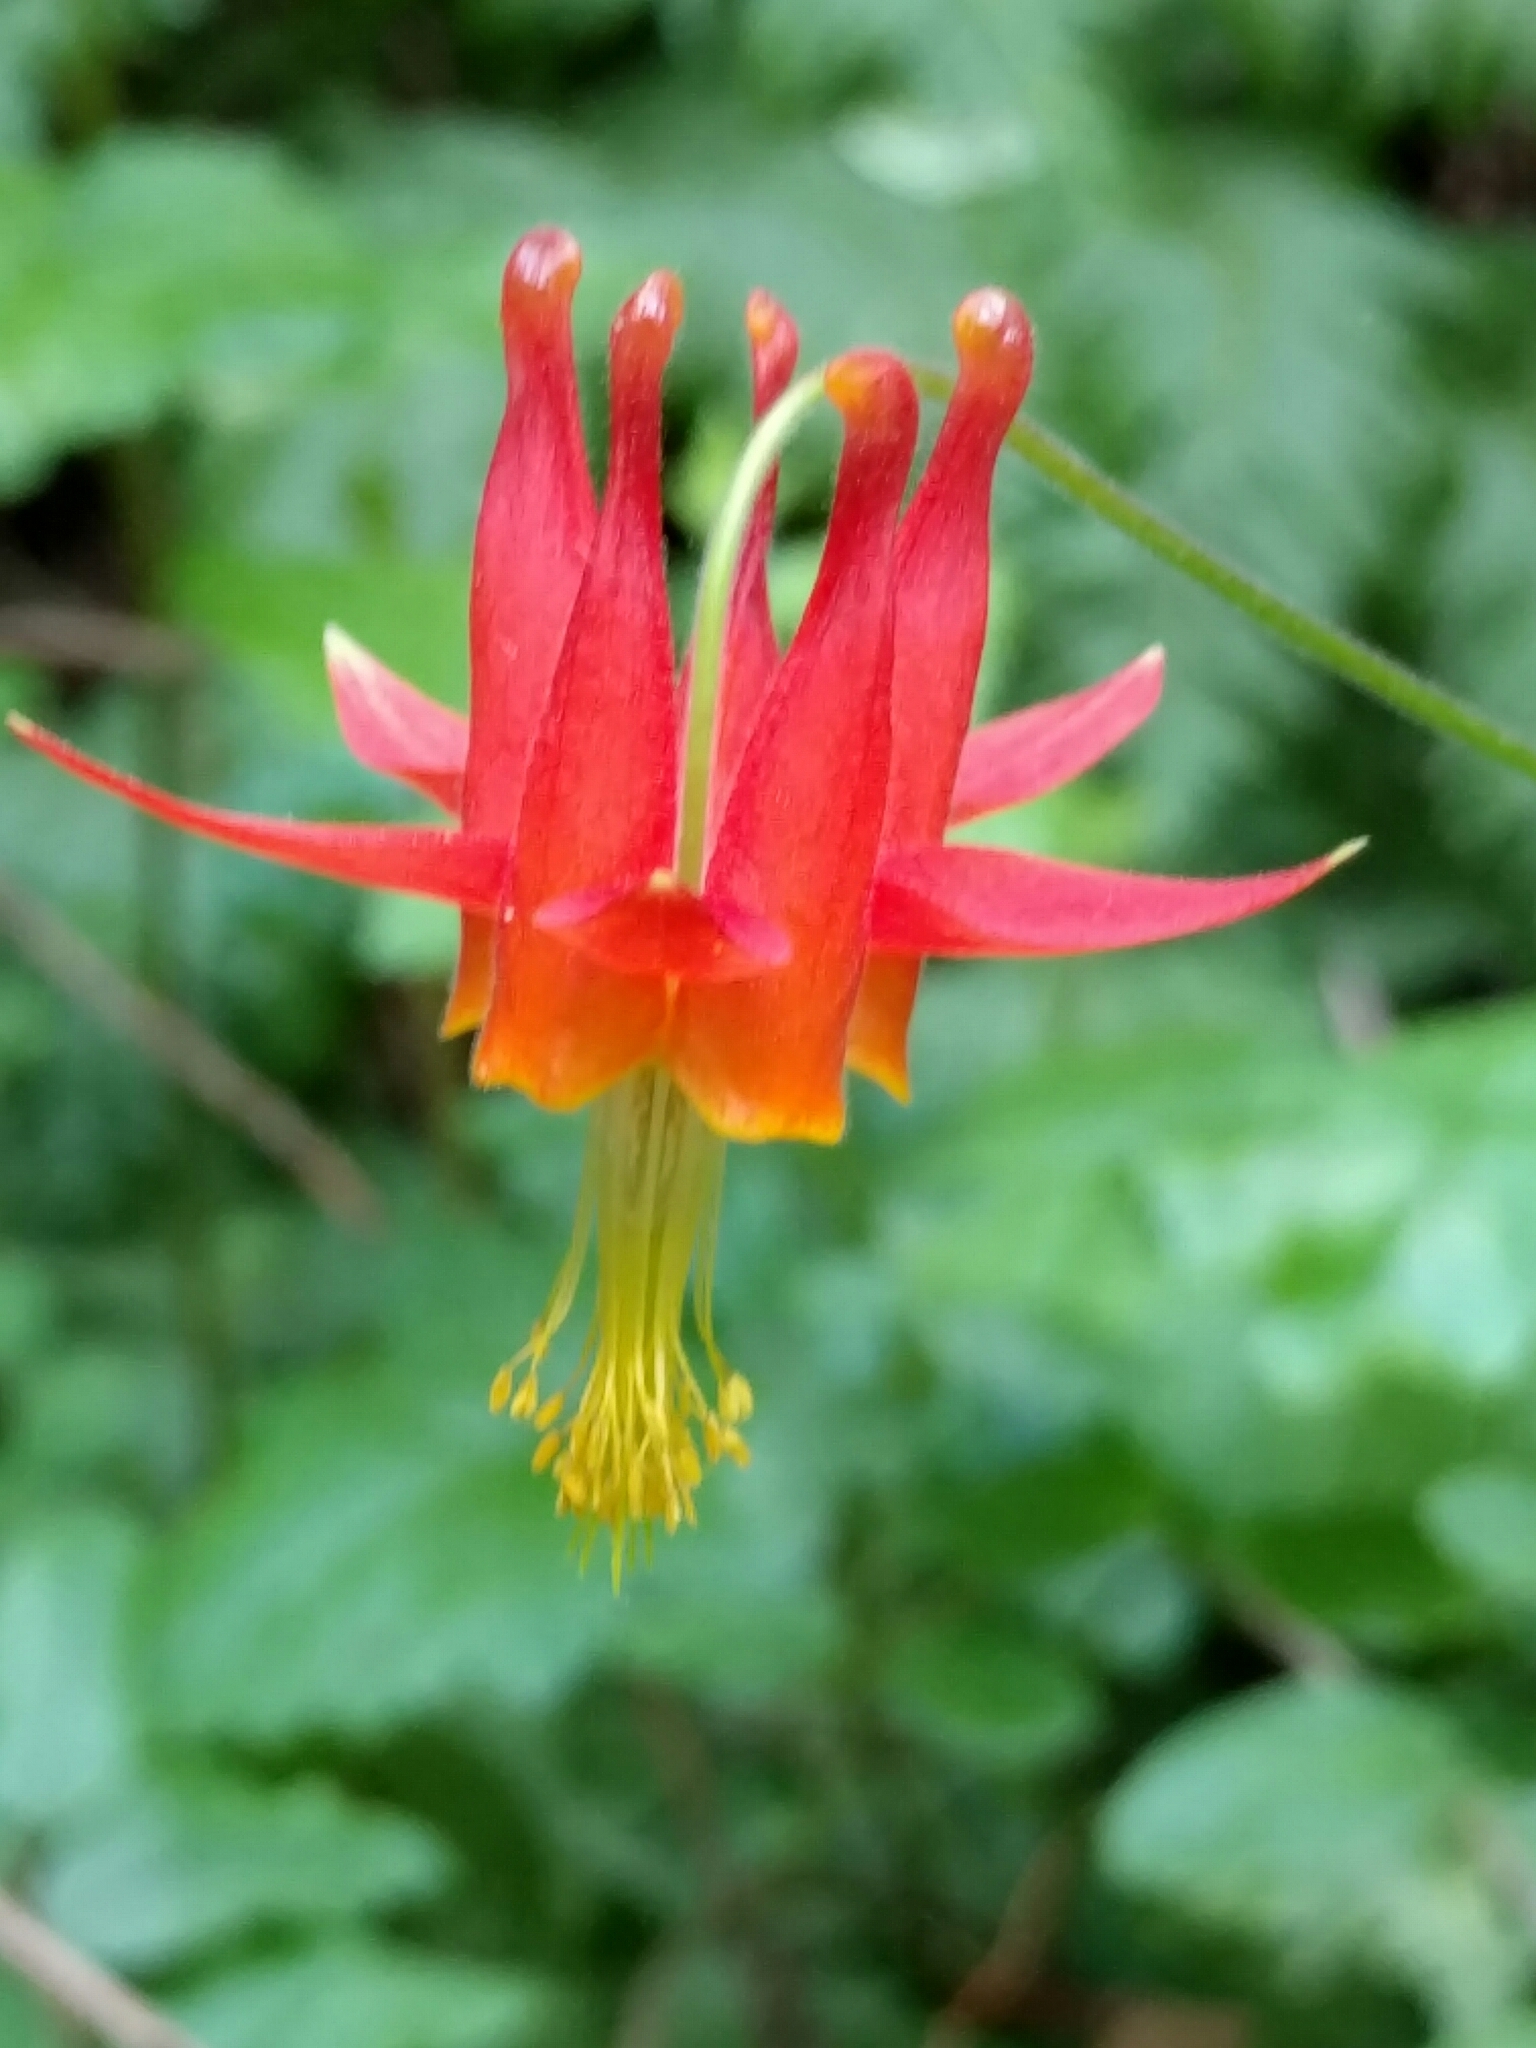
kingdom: Plantae
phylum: Tracheophyta
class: Magnoliopsida
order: Ranunculales
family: Ranunculaceae
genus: Aquilegia
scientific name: Aquilegia formosa
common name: Sitka columbine
